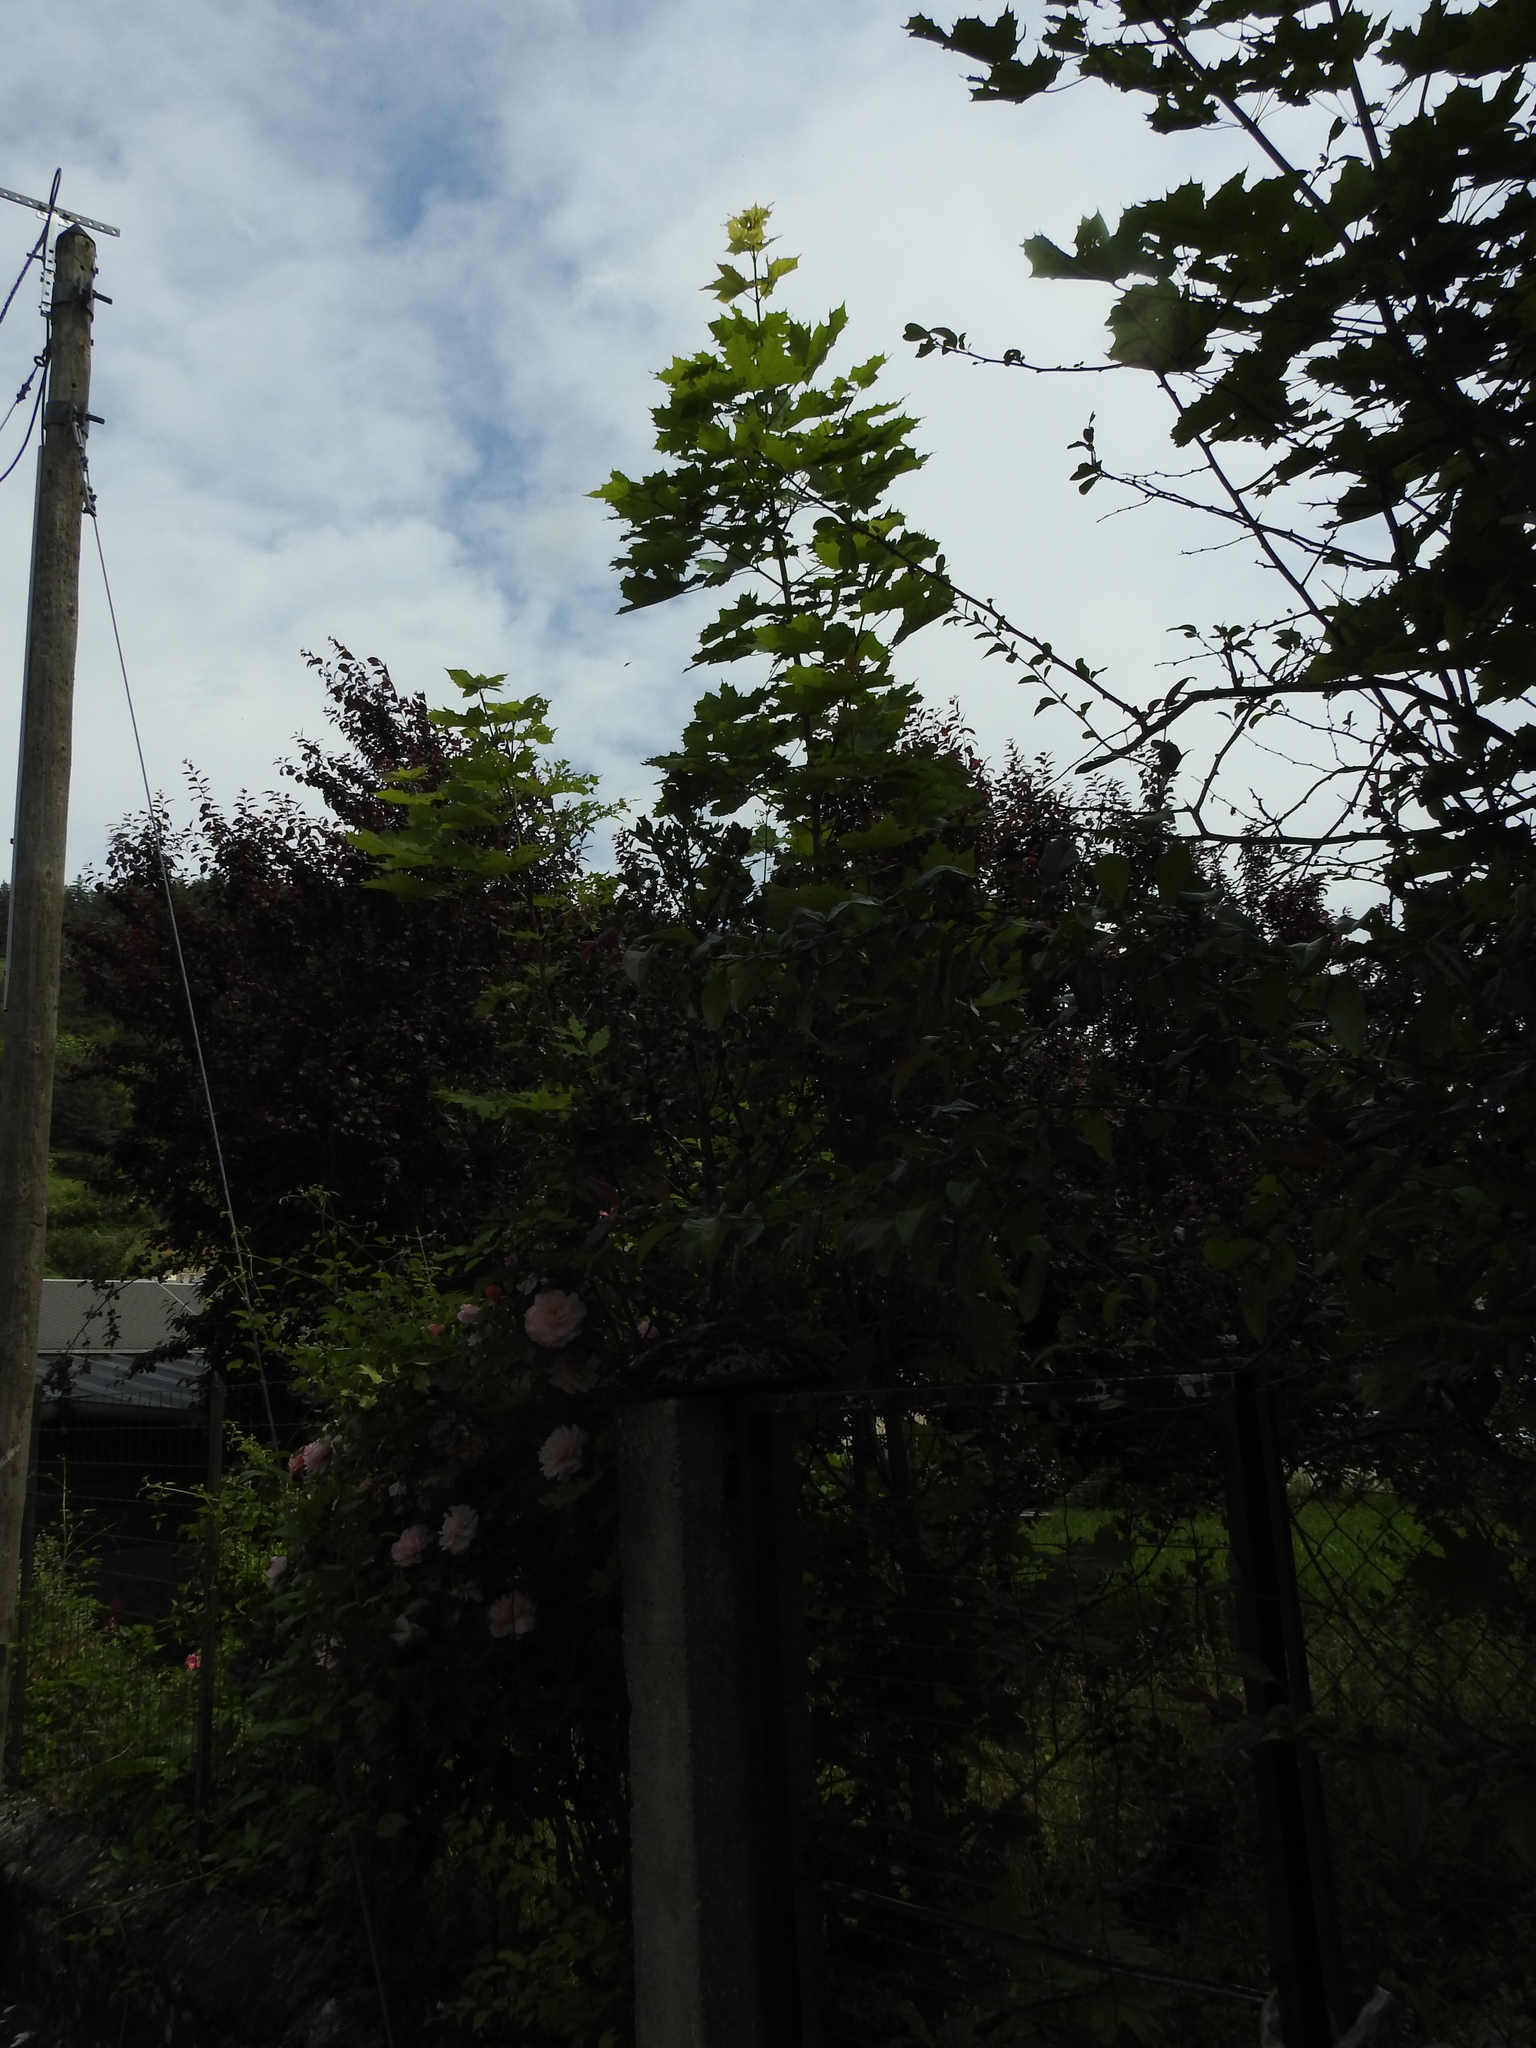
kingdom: Plantae
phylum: Tracheophyta
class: Magnoliopsida
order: Sapindales
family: Sapindaceae
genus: Acer
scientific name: Acer platanoides
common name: Norway maple
